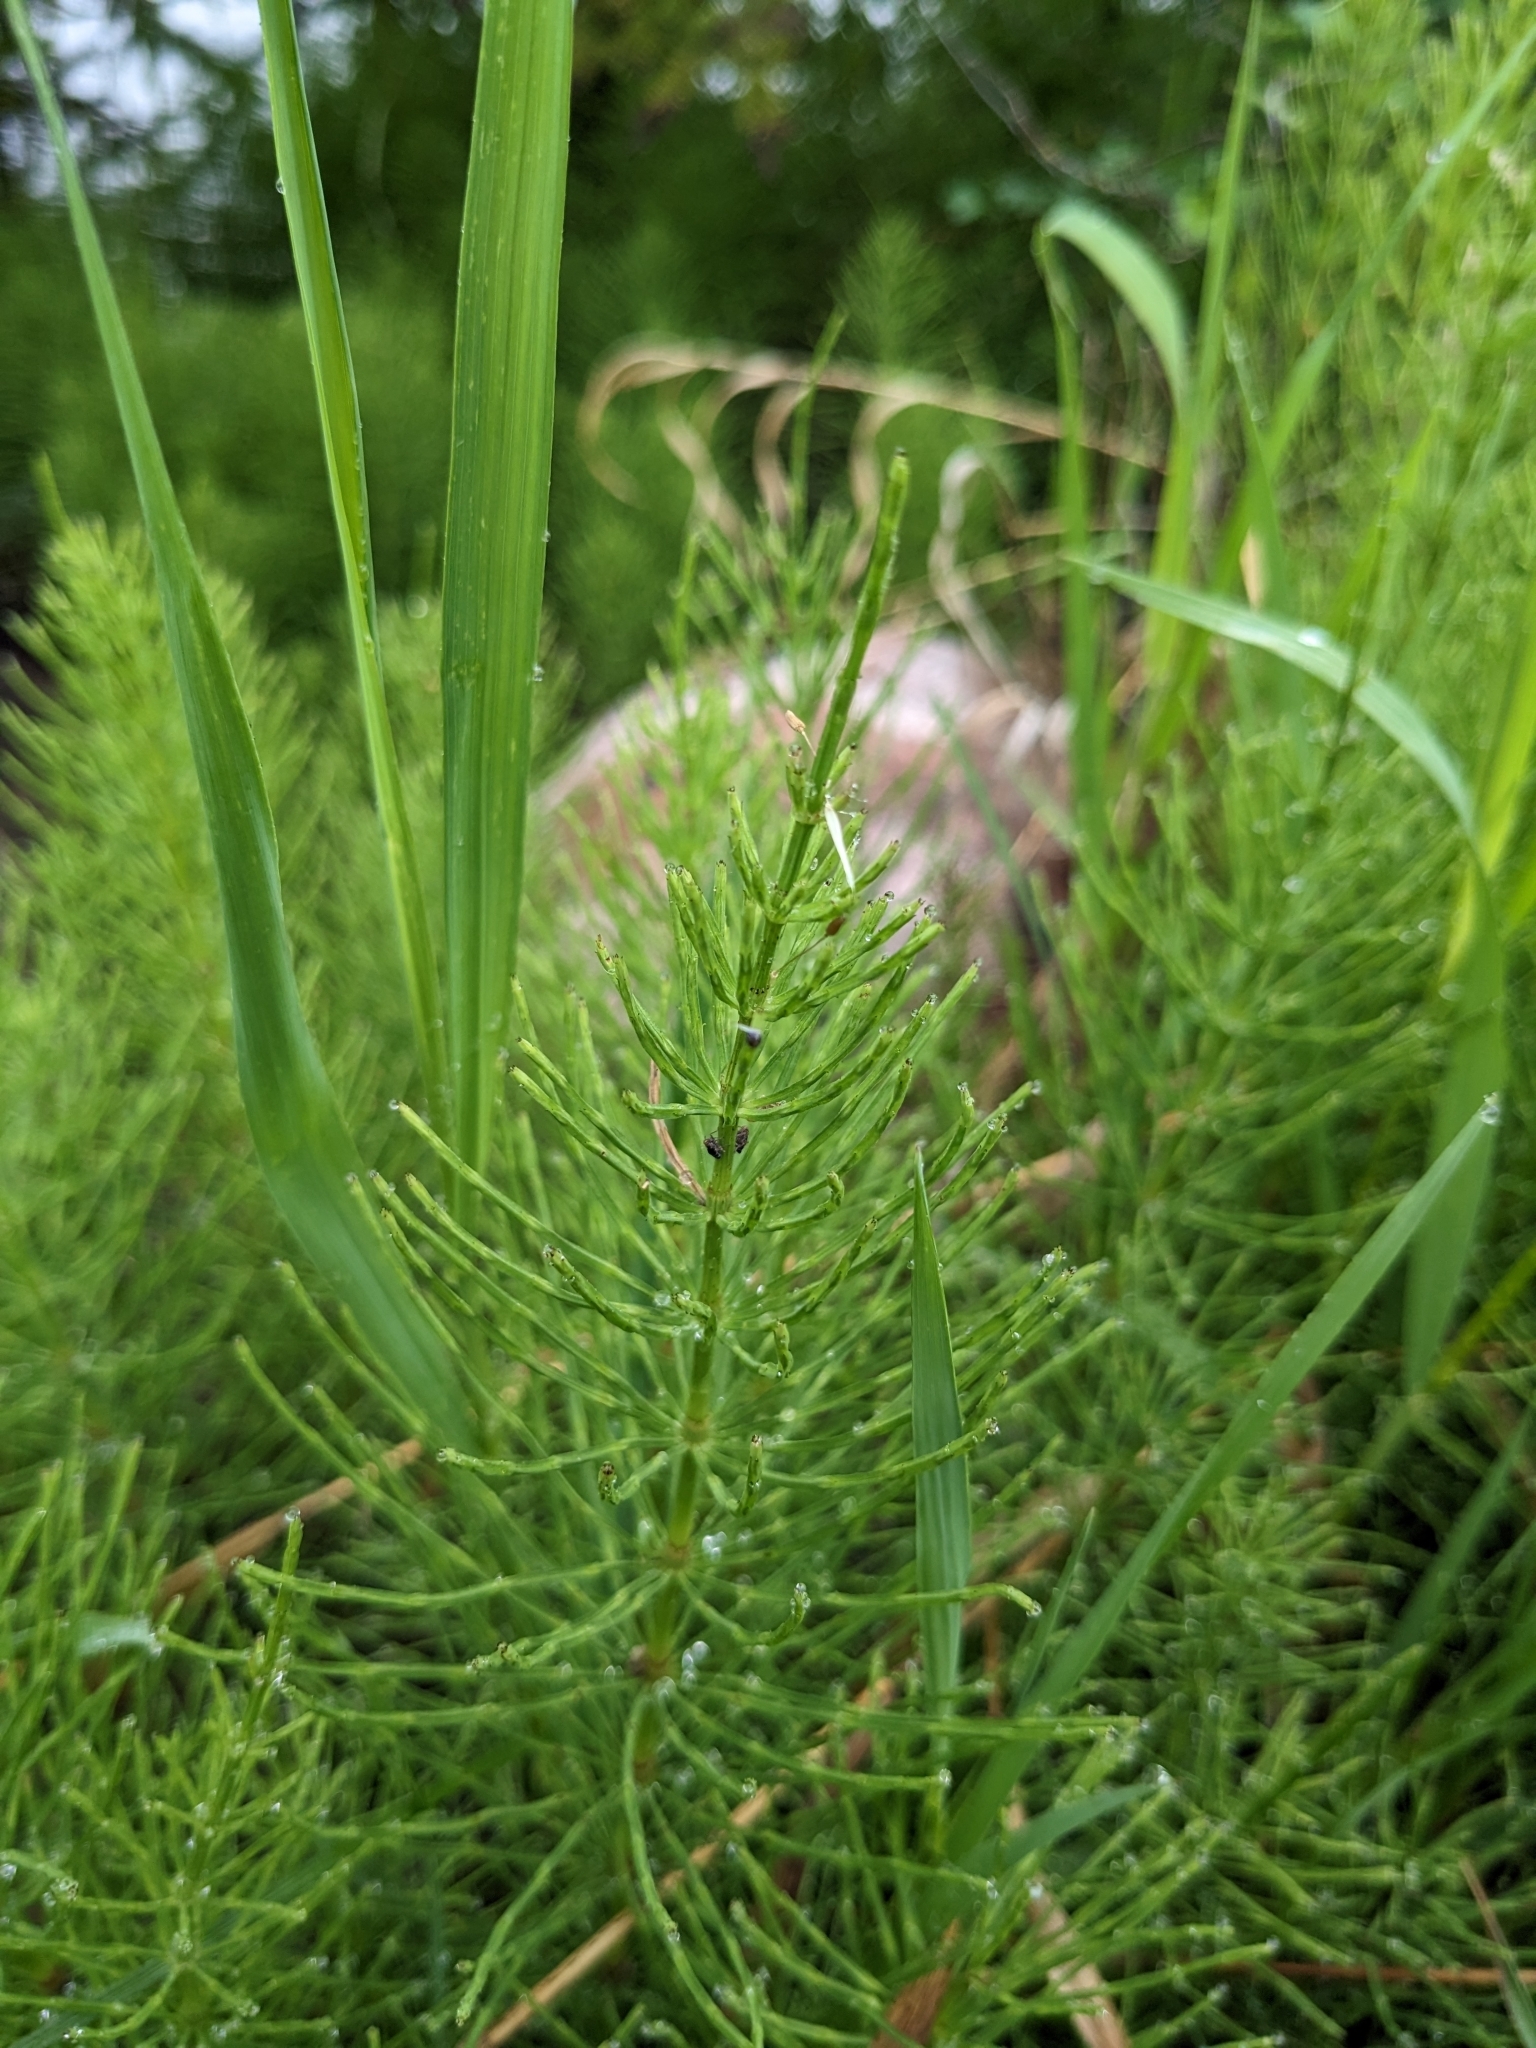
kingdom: Plantae
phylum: Tracheophyta
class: Polypodiopsida
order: Equisetales
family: Equisetaceae
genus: Equisetum
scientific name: Equisetum arvense
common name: Field horsetail
